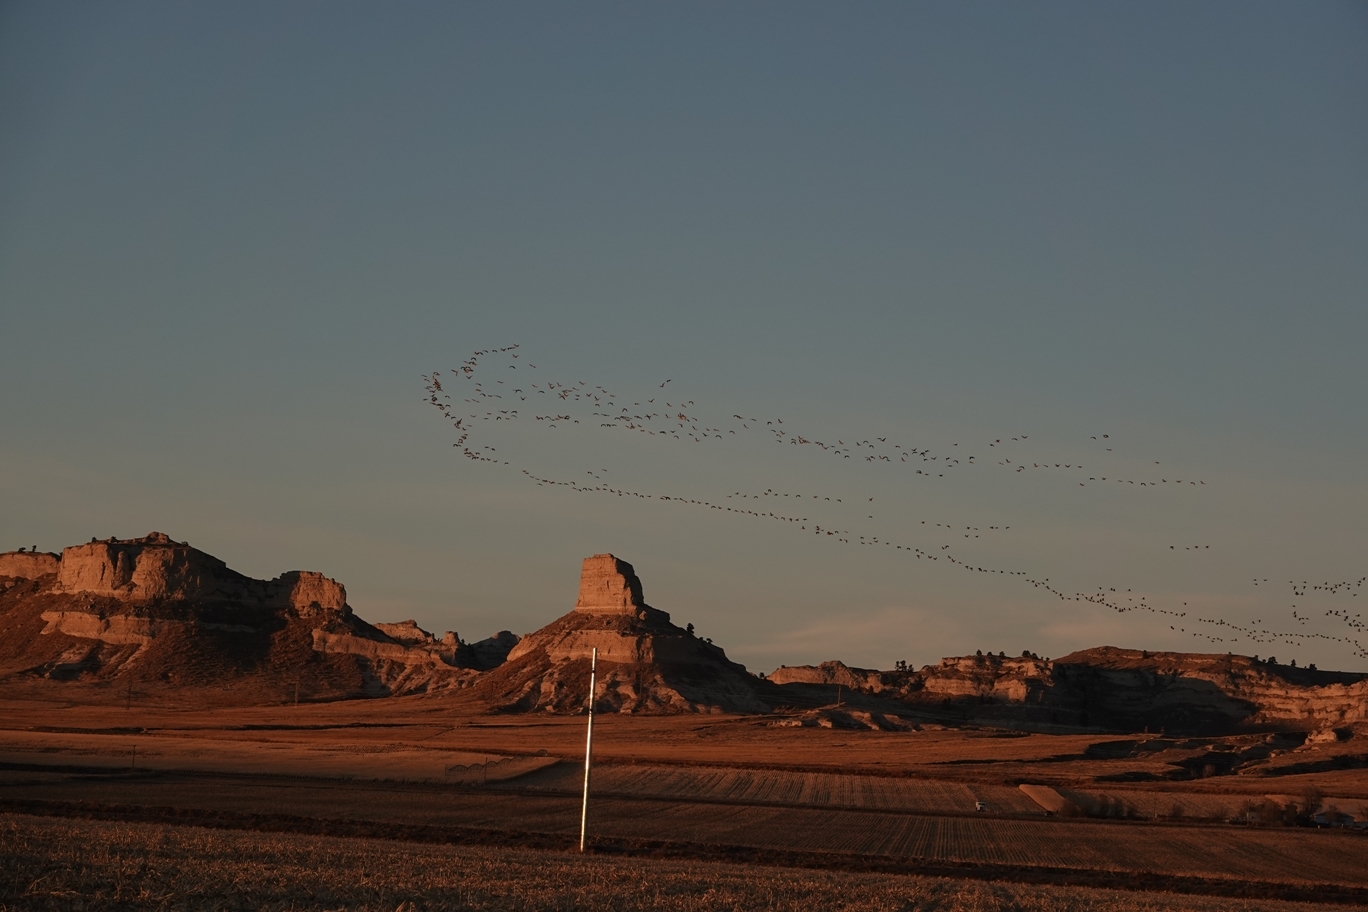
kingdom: Animalia
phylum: Chordata
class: Aves
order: Anseriformes
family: Anatidae
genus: Branta
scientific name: Branta canadensis
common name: Canada goose
